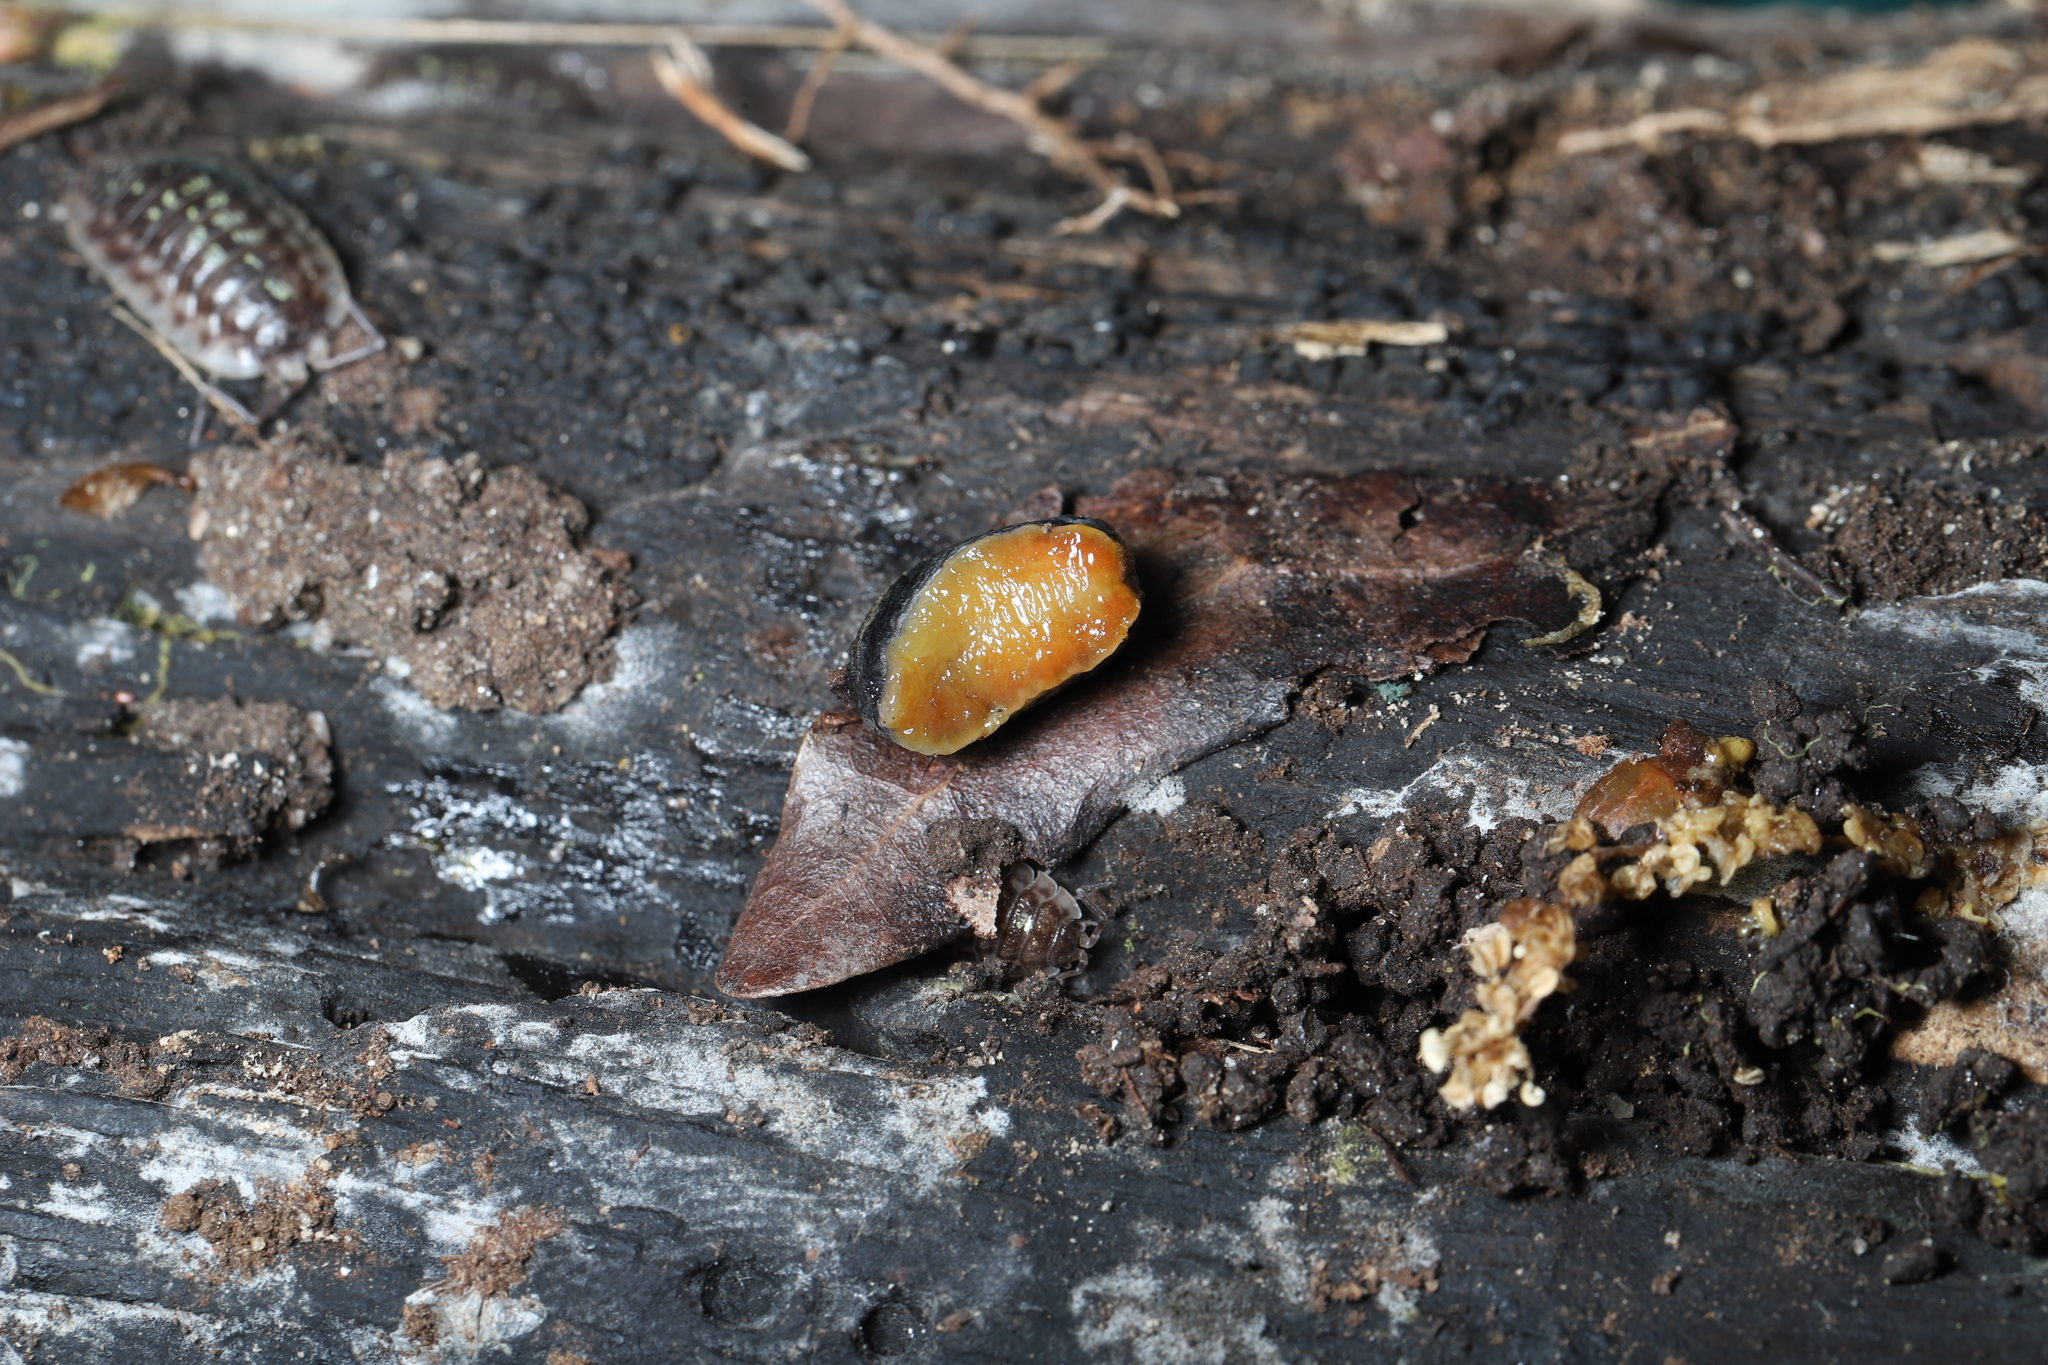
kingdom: Animalia
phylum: Mollusca
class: Gastropoda
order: Stylommatophora
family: Arionidae
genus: Arion
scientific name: Arion hortensis
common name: Garden arion
